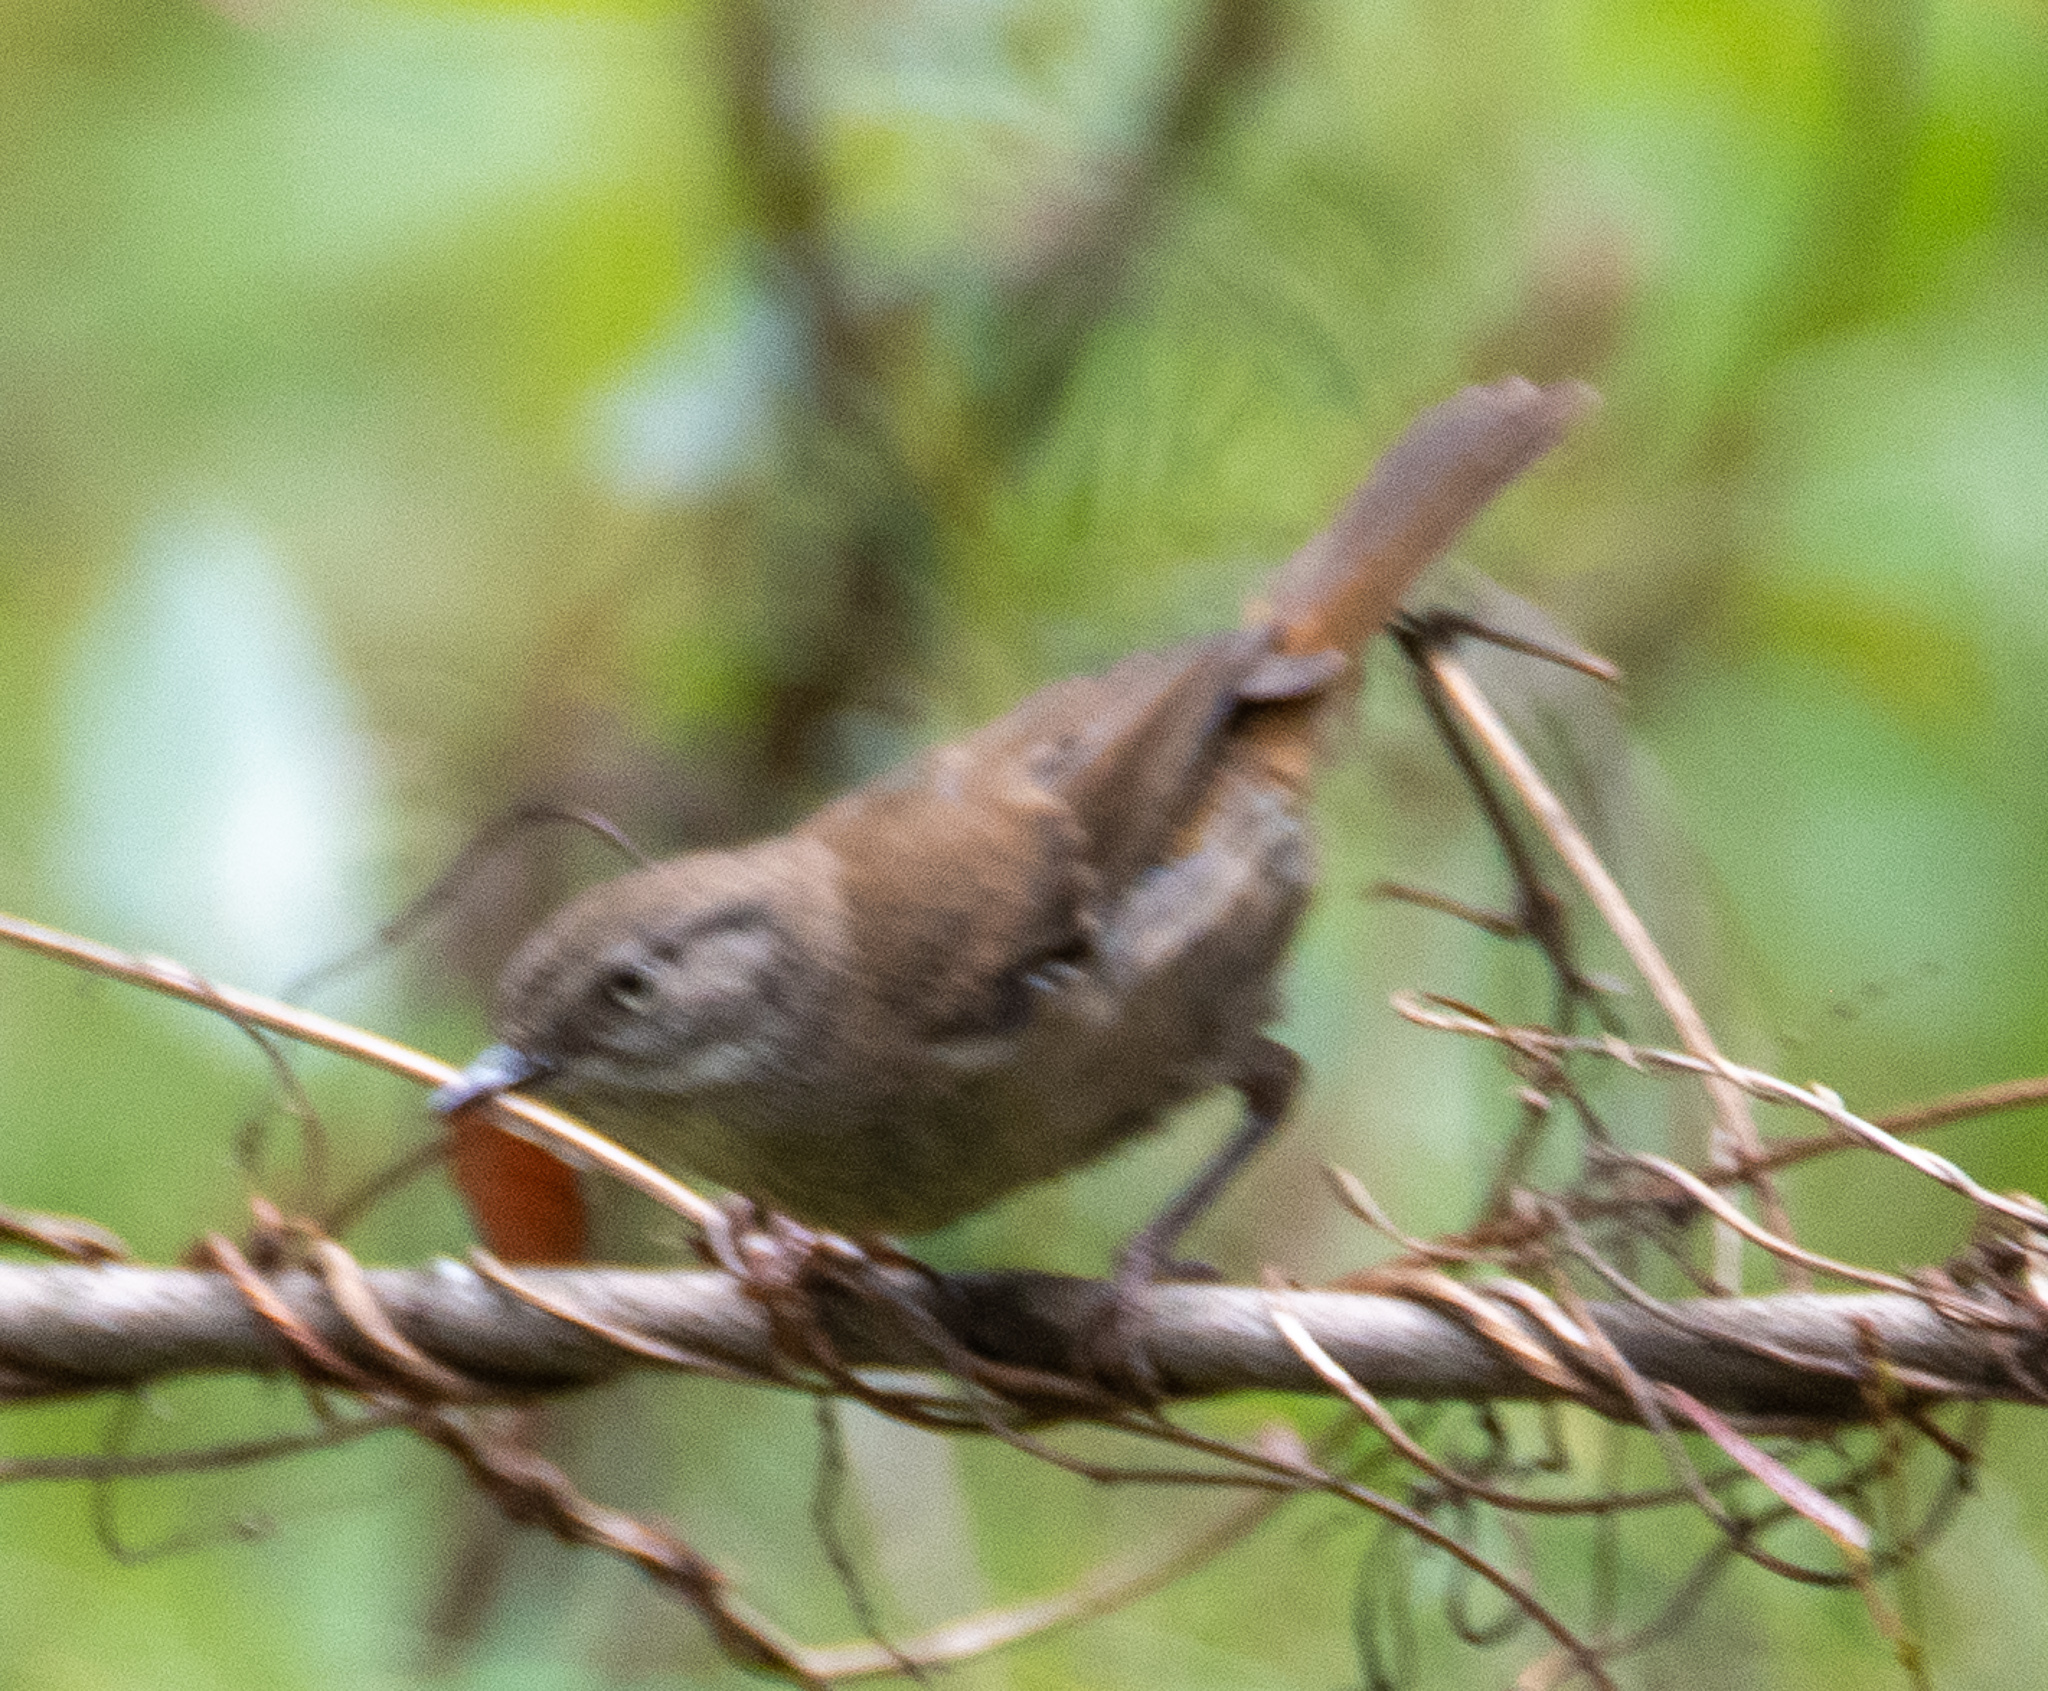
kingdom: Animalia
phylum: Chordata
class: Aves
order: Passeriformes
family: Acanthizidae
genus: Sericornis
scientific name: Sericornis frontalis
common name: White-browed scrubwren
